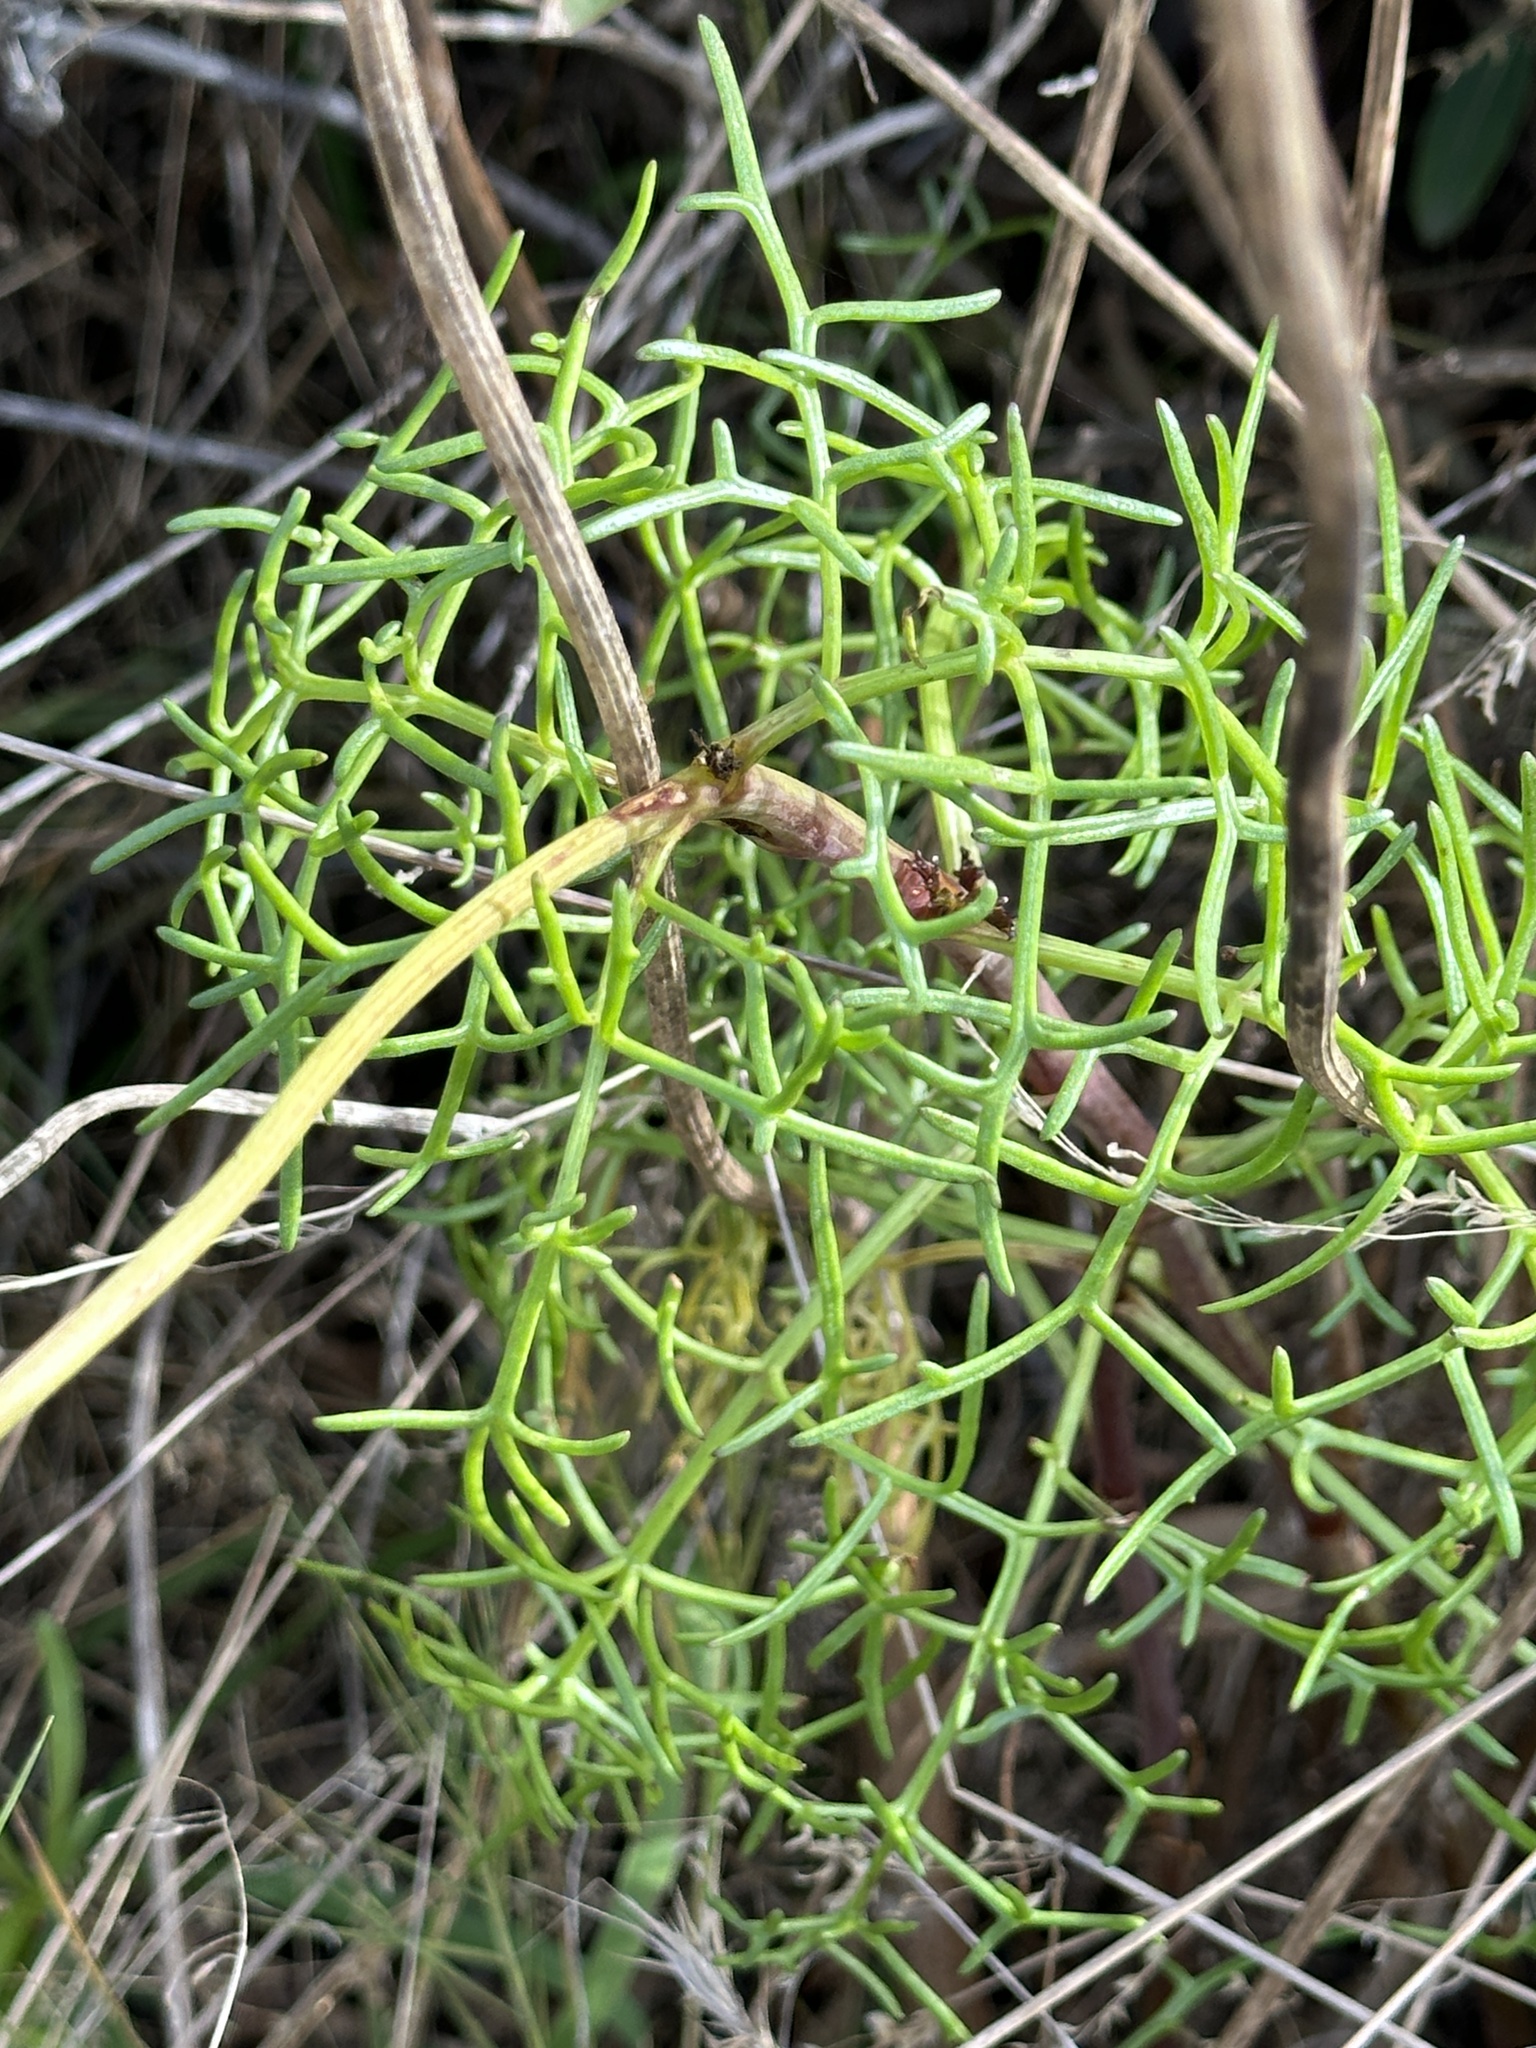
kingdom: Plantae
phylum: Tracheophyta
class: Magnoliopsida
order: Asterales
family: Asteraceae
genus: Coreopsis
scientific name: Coreopsis maritima
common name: Sea-dahlia
